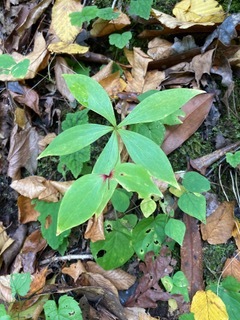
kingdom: Plantae
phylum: Tracheophyta
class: Liliopsida
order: Liliales
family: Liliaceae
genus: Medeola
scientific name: Medeola virginiana
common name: Indian cucumber-root
